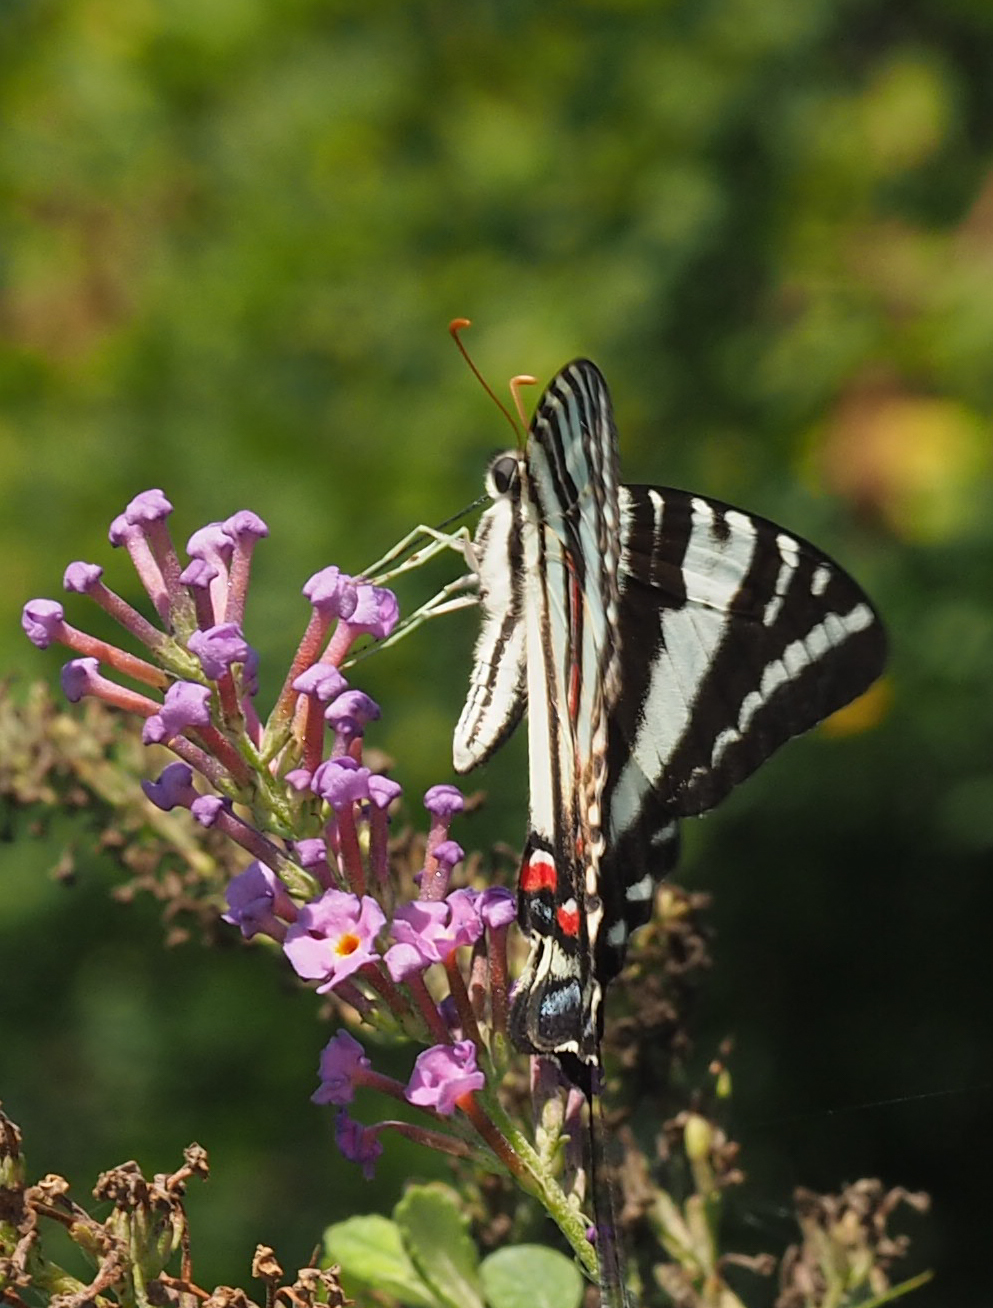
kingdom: Animalia
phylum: Arthropoda
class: Insecta
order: Lepidoptera
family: Papilionidae
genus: Protographium
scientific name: Protographium marcellus
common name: Zebra swallowtail
